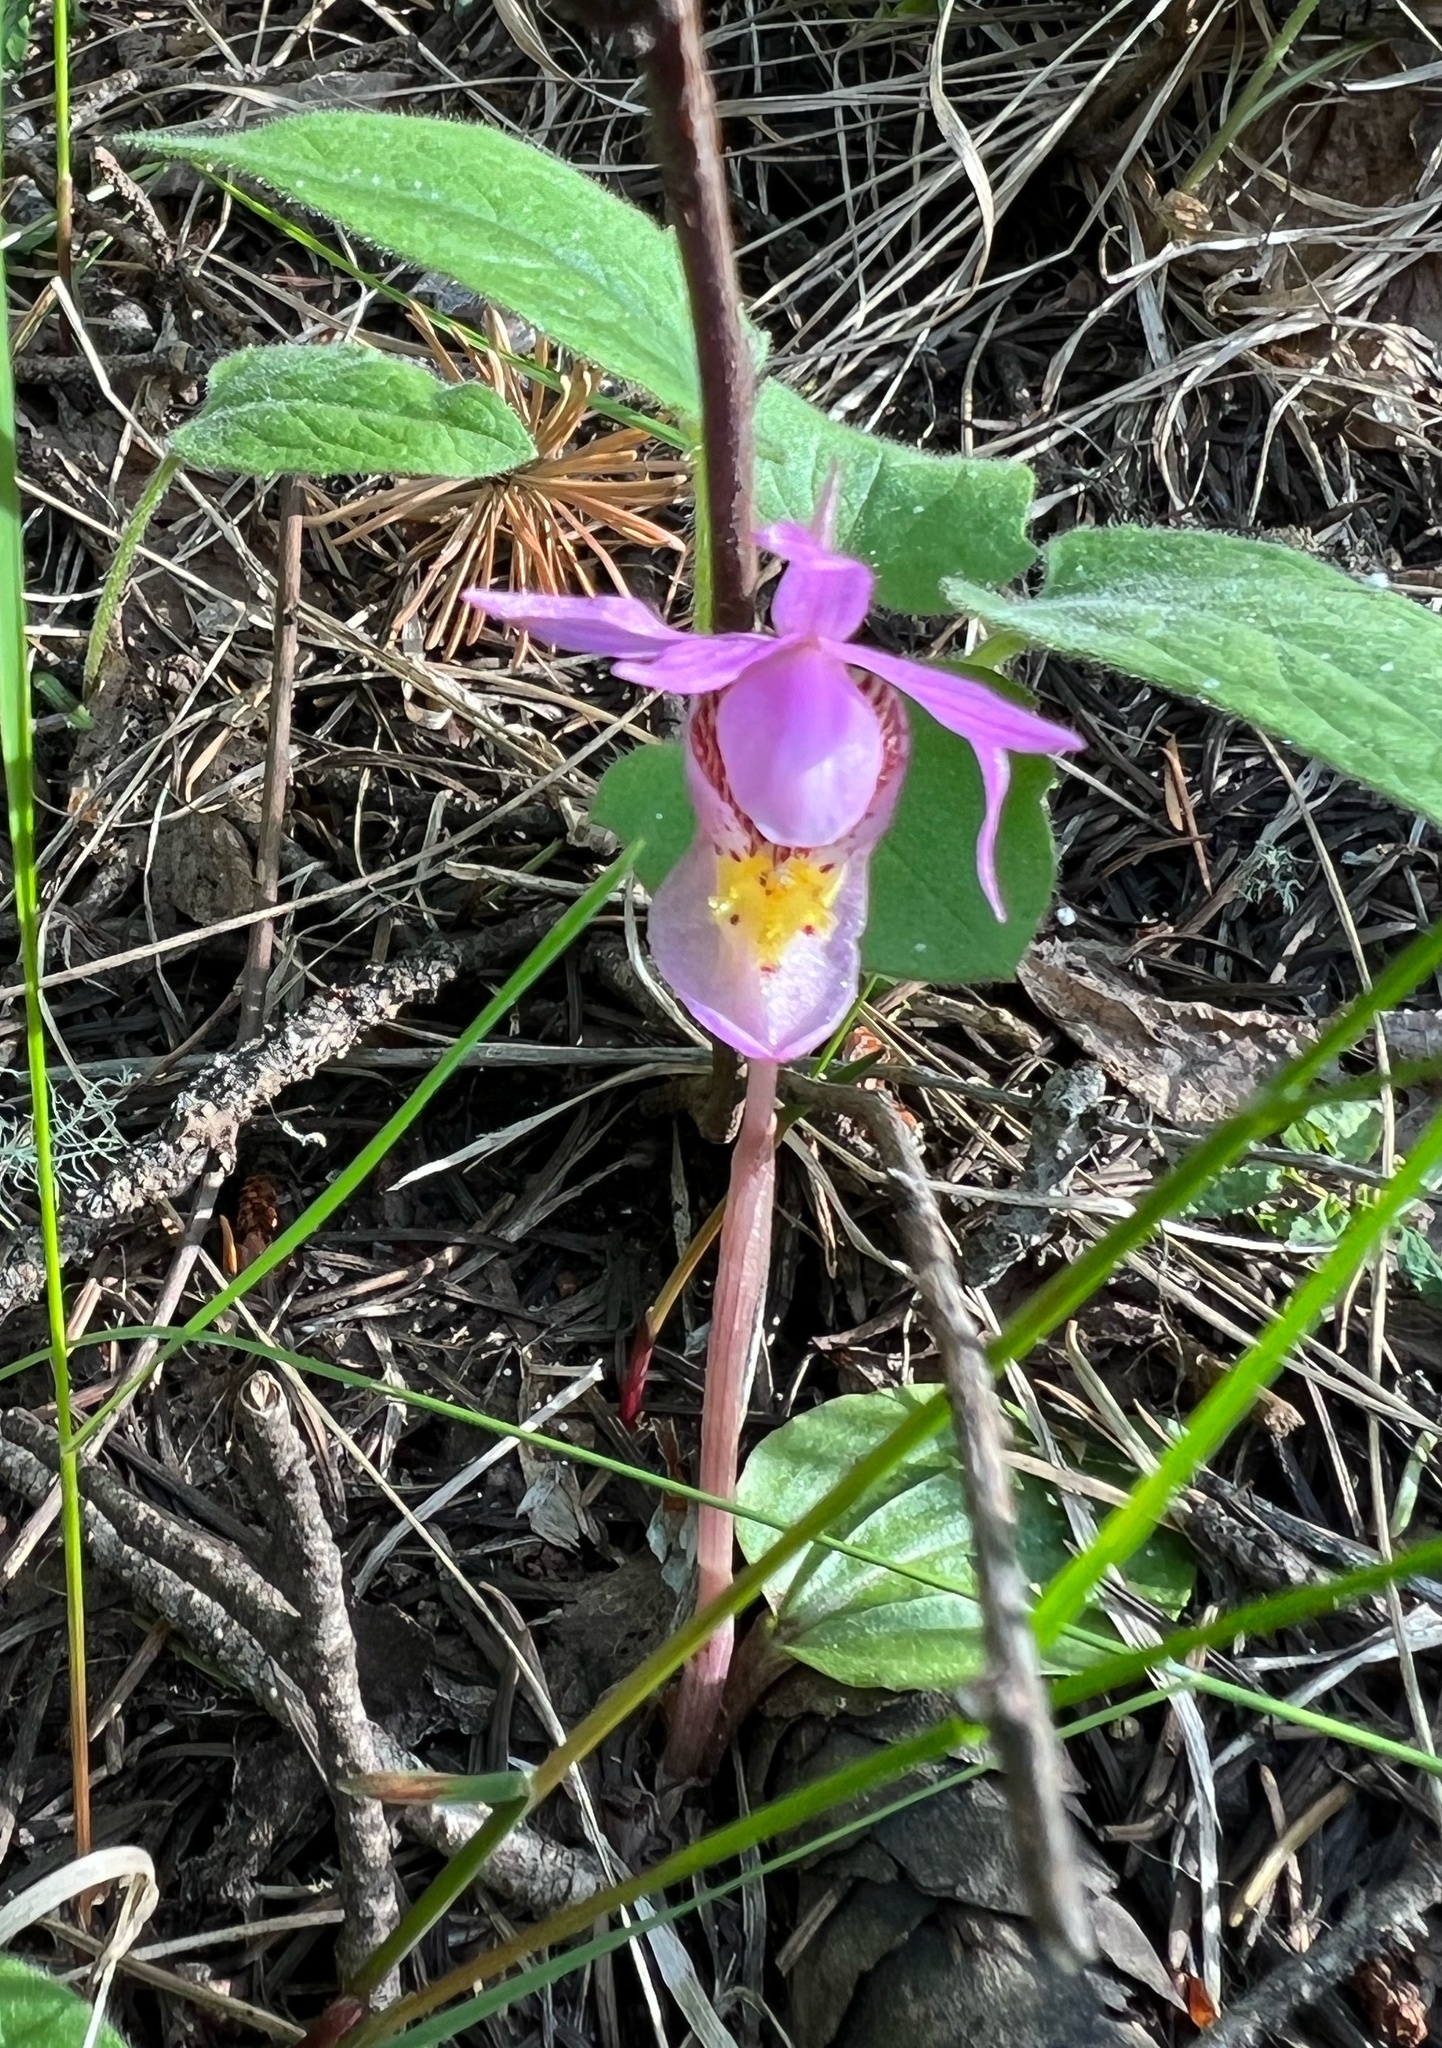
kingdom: Plantae
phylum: Tracheophyta
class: Liliopsida
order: Asparagales
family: Orchidaceae
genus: Calypso
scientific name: Calypso bulbosa
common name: Calypso
